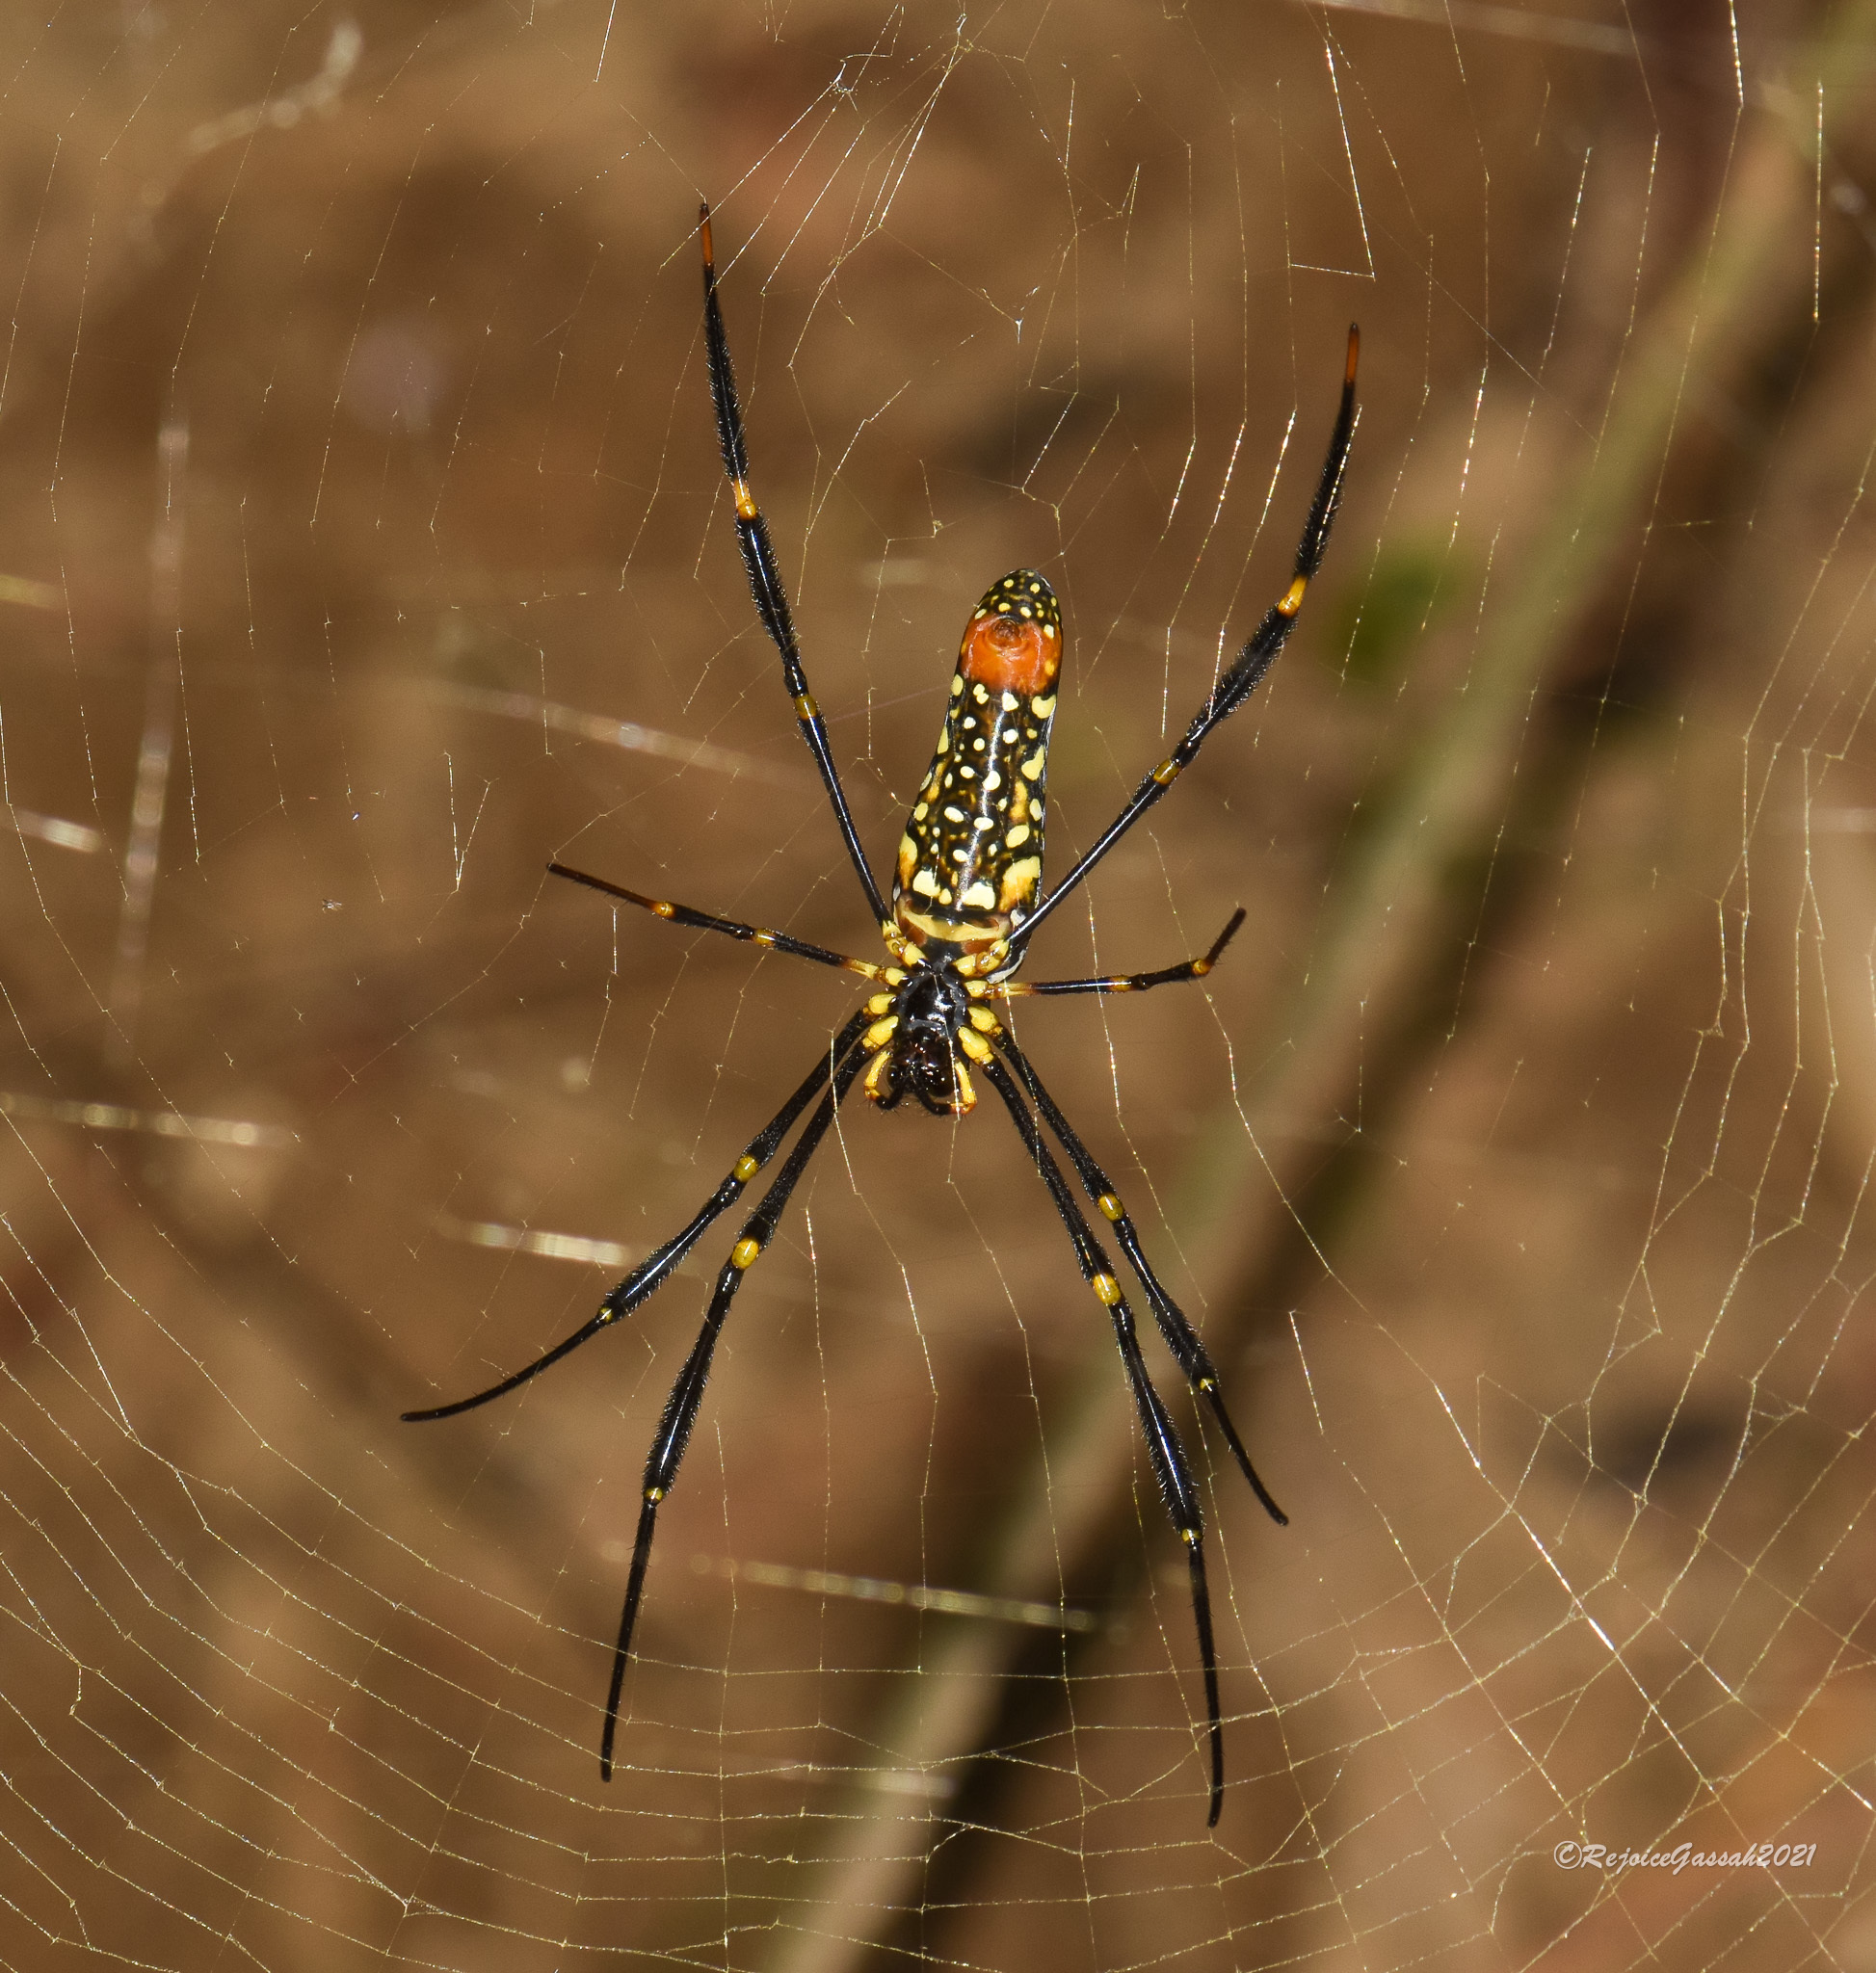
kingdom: Animalia
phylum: Arthropoda
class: Arachnida
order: Araneae
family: Araneidae
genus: Nephila
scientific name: Nephila pilipes
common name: Giant golden orb weaver
